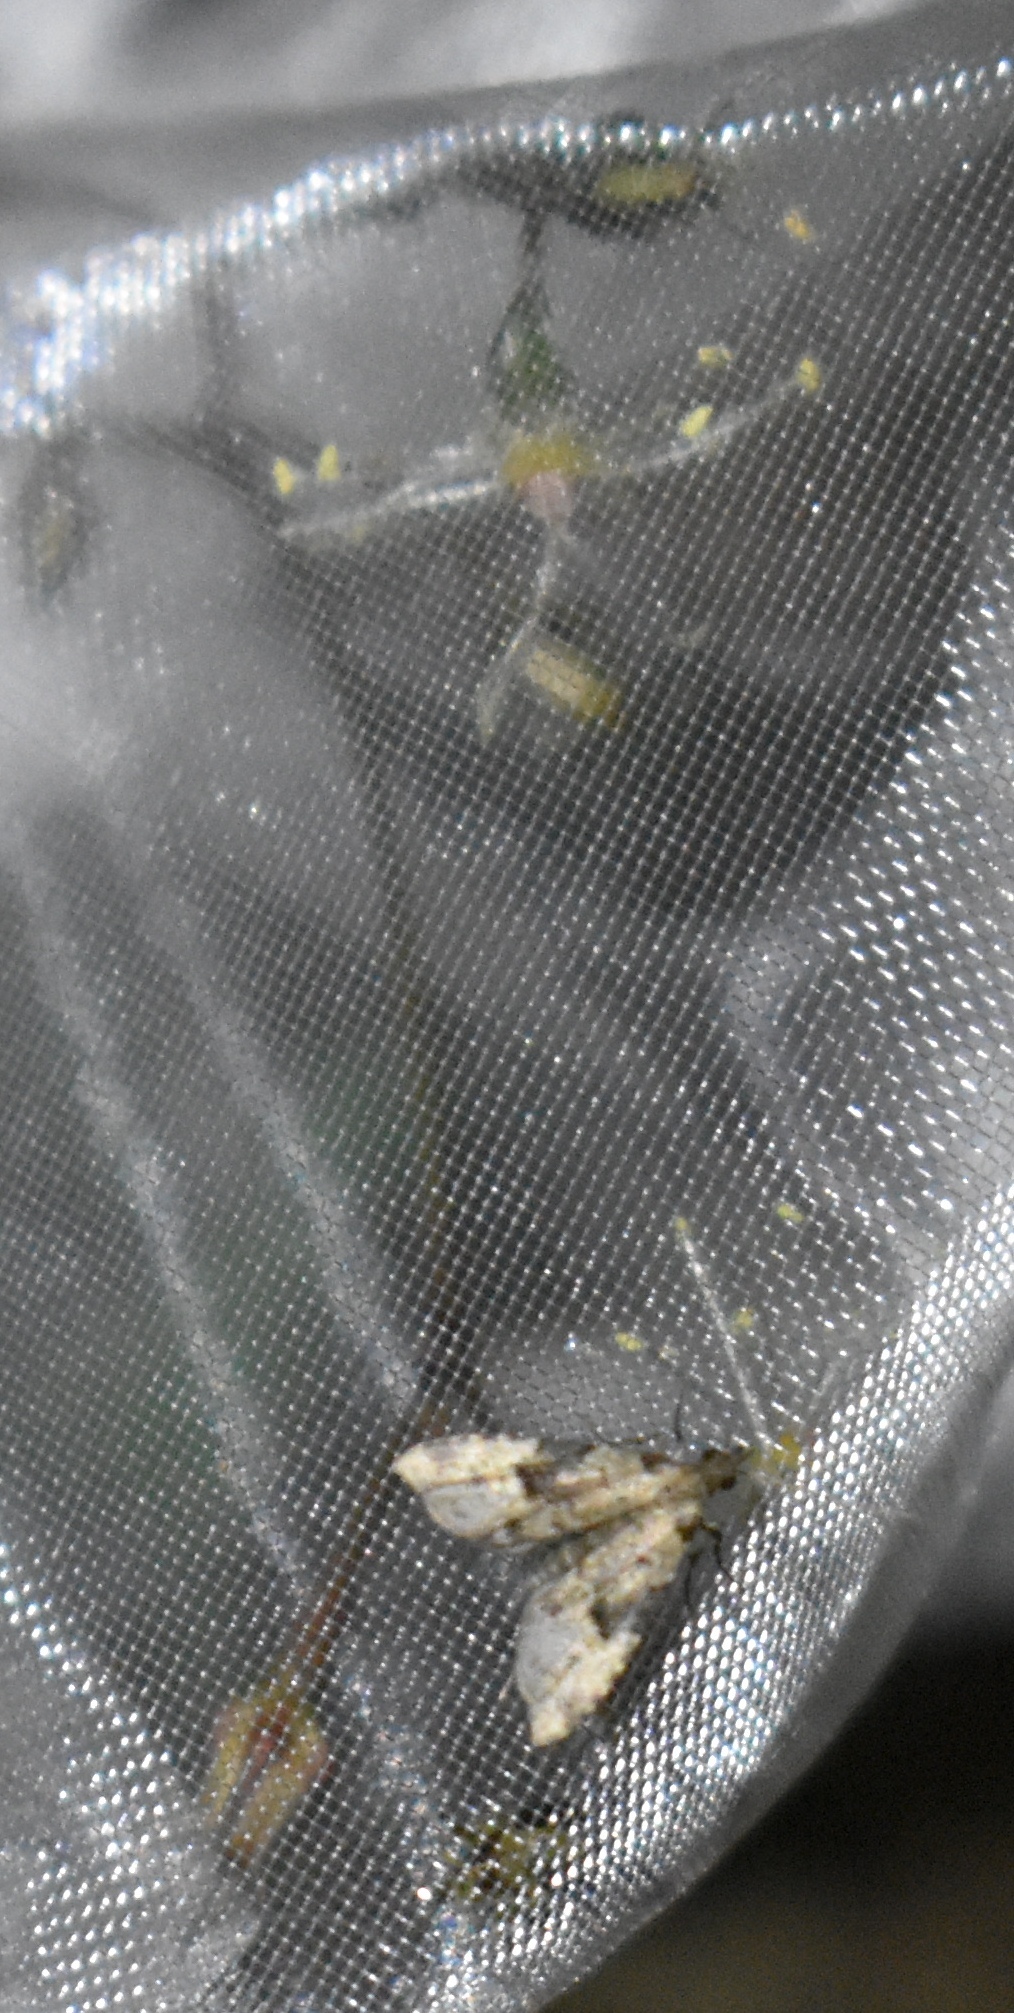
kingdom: Animalia
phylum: Arthropoda
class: Insecta
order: Lepidoptera
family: Erebidae
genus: Pseudoschrankia
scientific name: Pseudoschrankia brevipalpis
